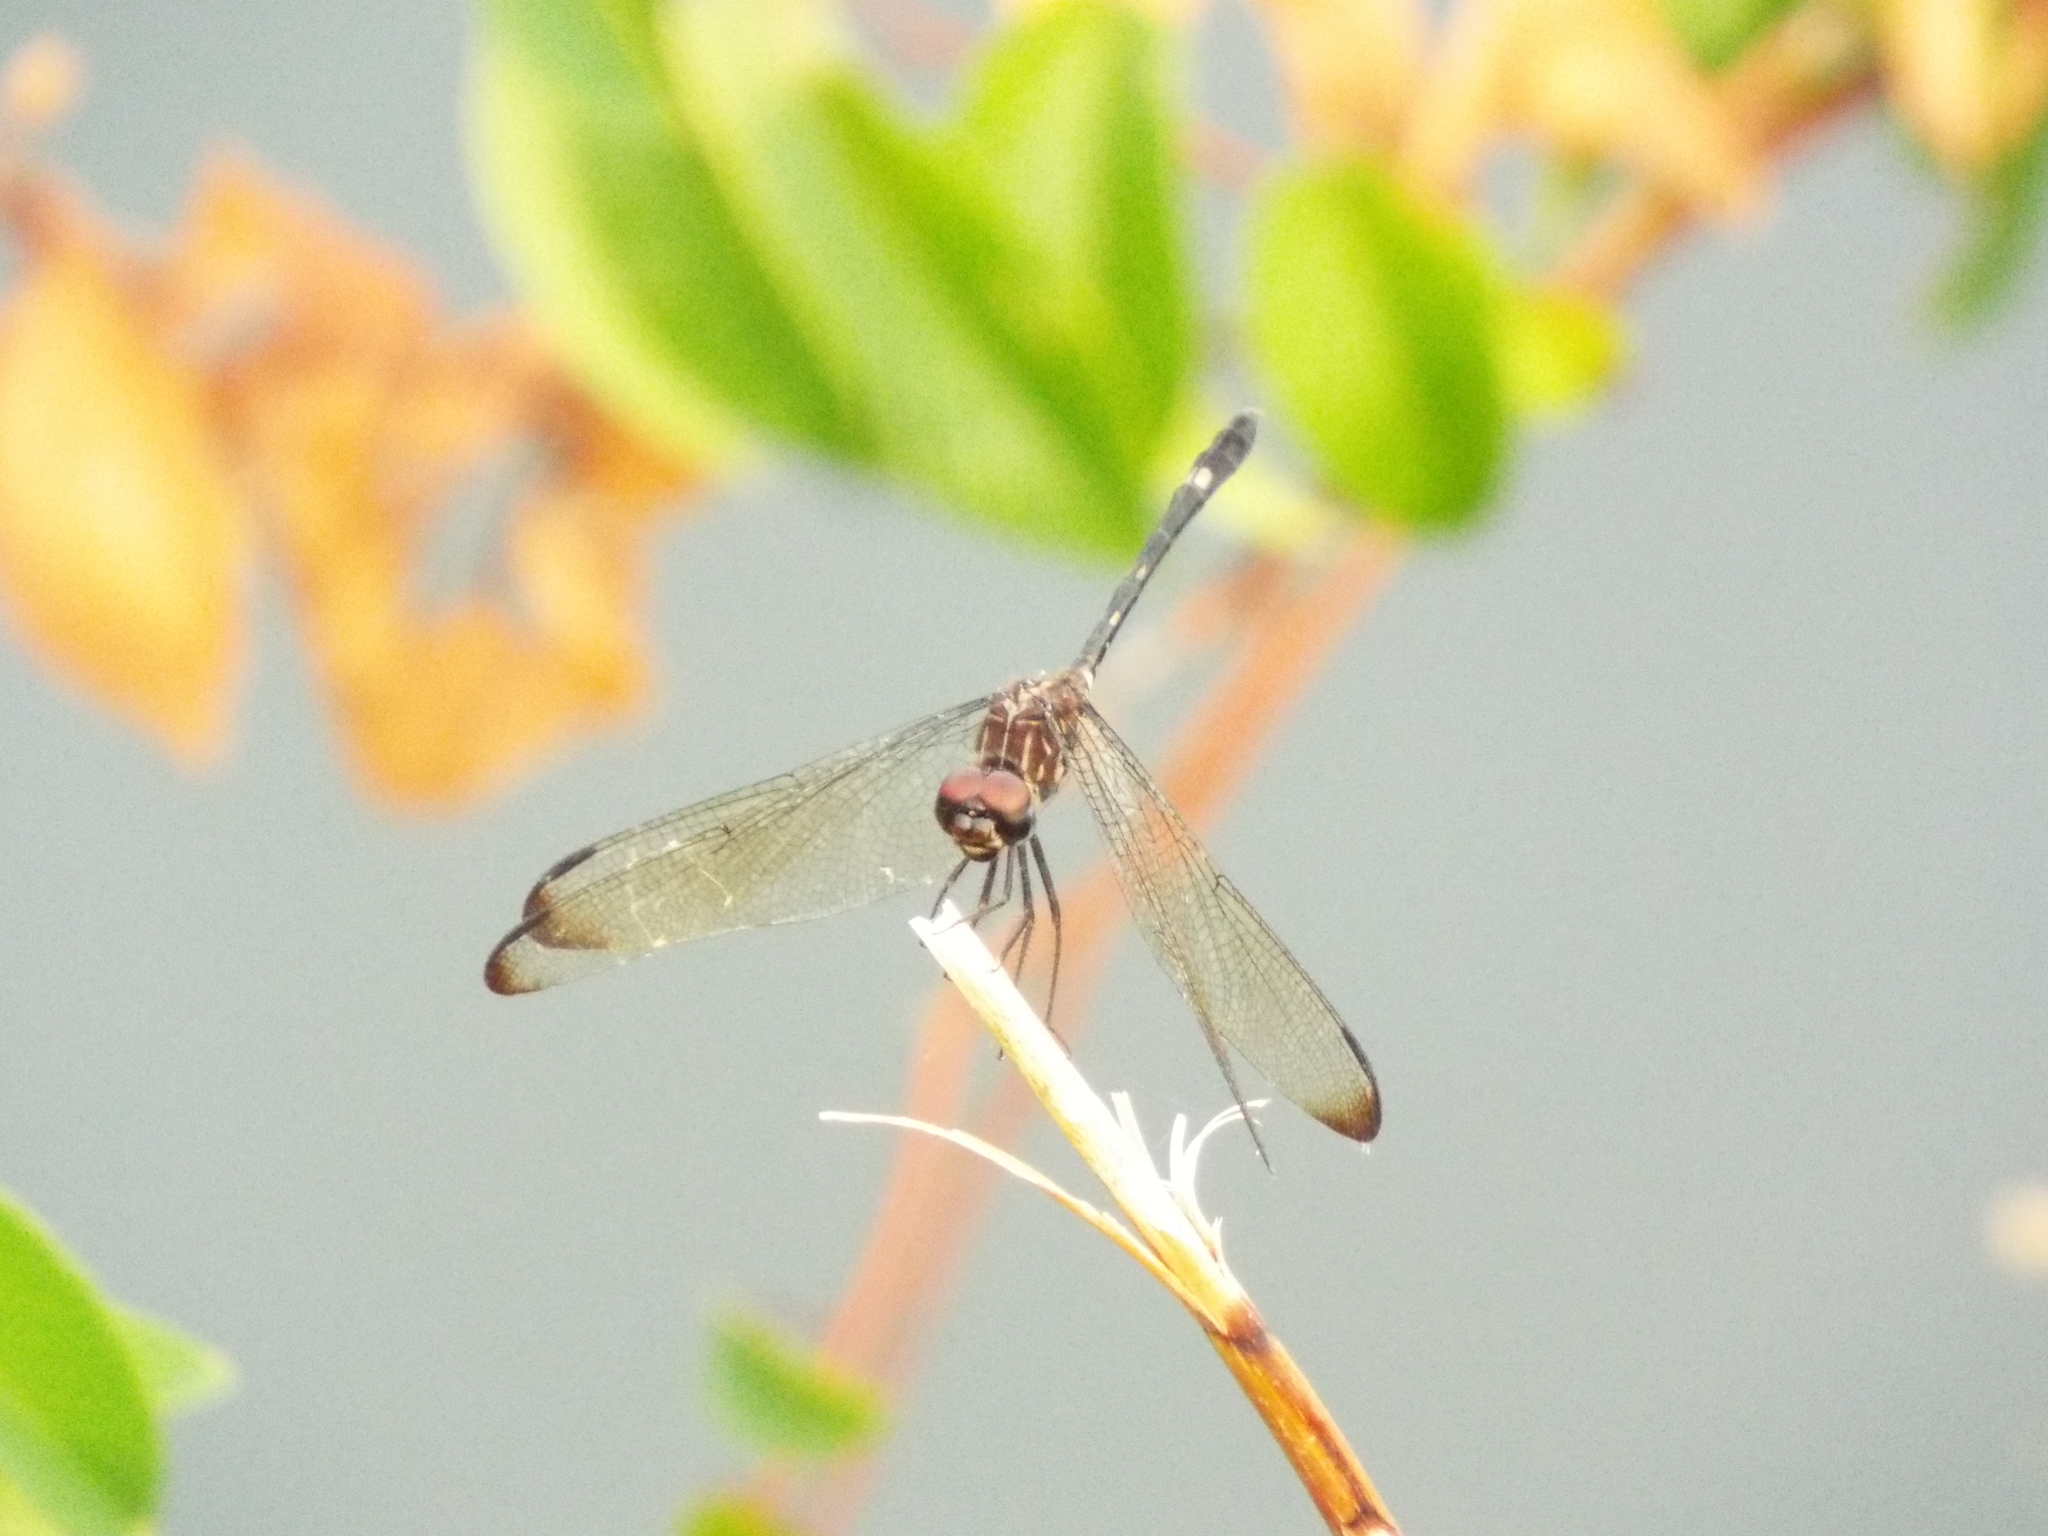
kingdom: Animalia
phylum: Arthropoda
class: Insecta
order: Odonata
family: Libellulidae
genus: Dythemis
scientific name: Dythemis velox
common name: Swift setwing
